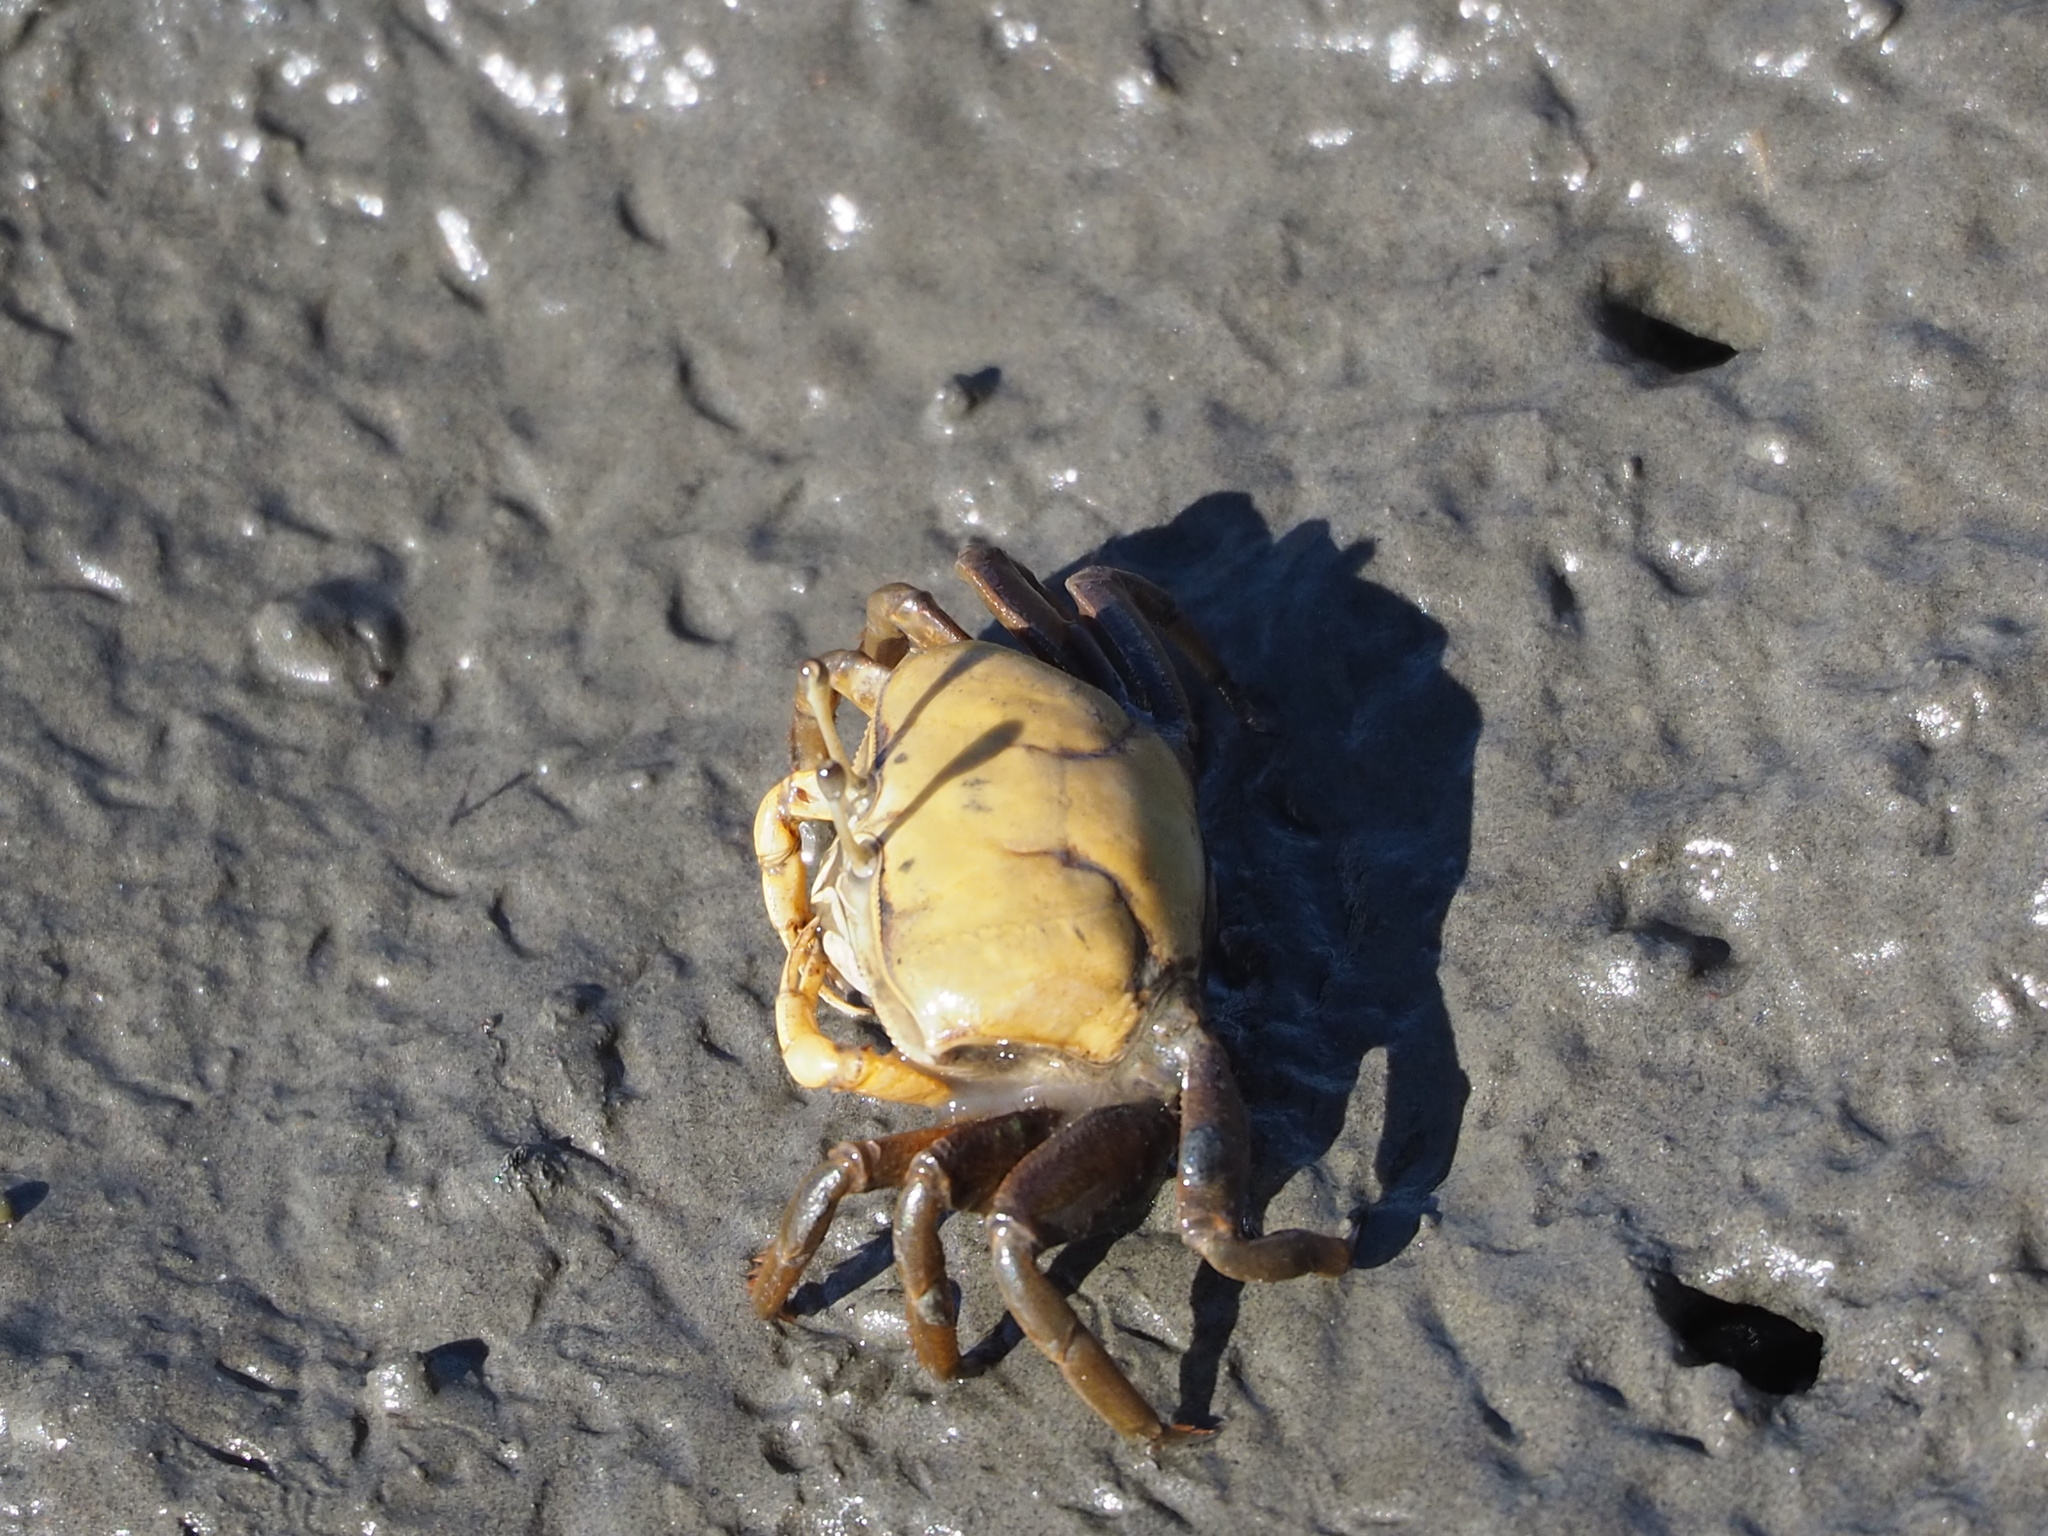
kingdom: Animalia
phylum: Arthropoda
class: Malacostraca
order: Decapoda
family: Ocypodidae
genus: Gelasimus
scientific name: Gelasimus borealis
